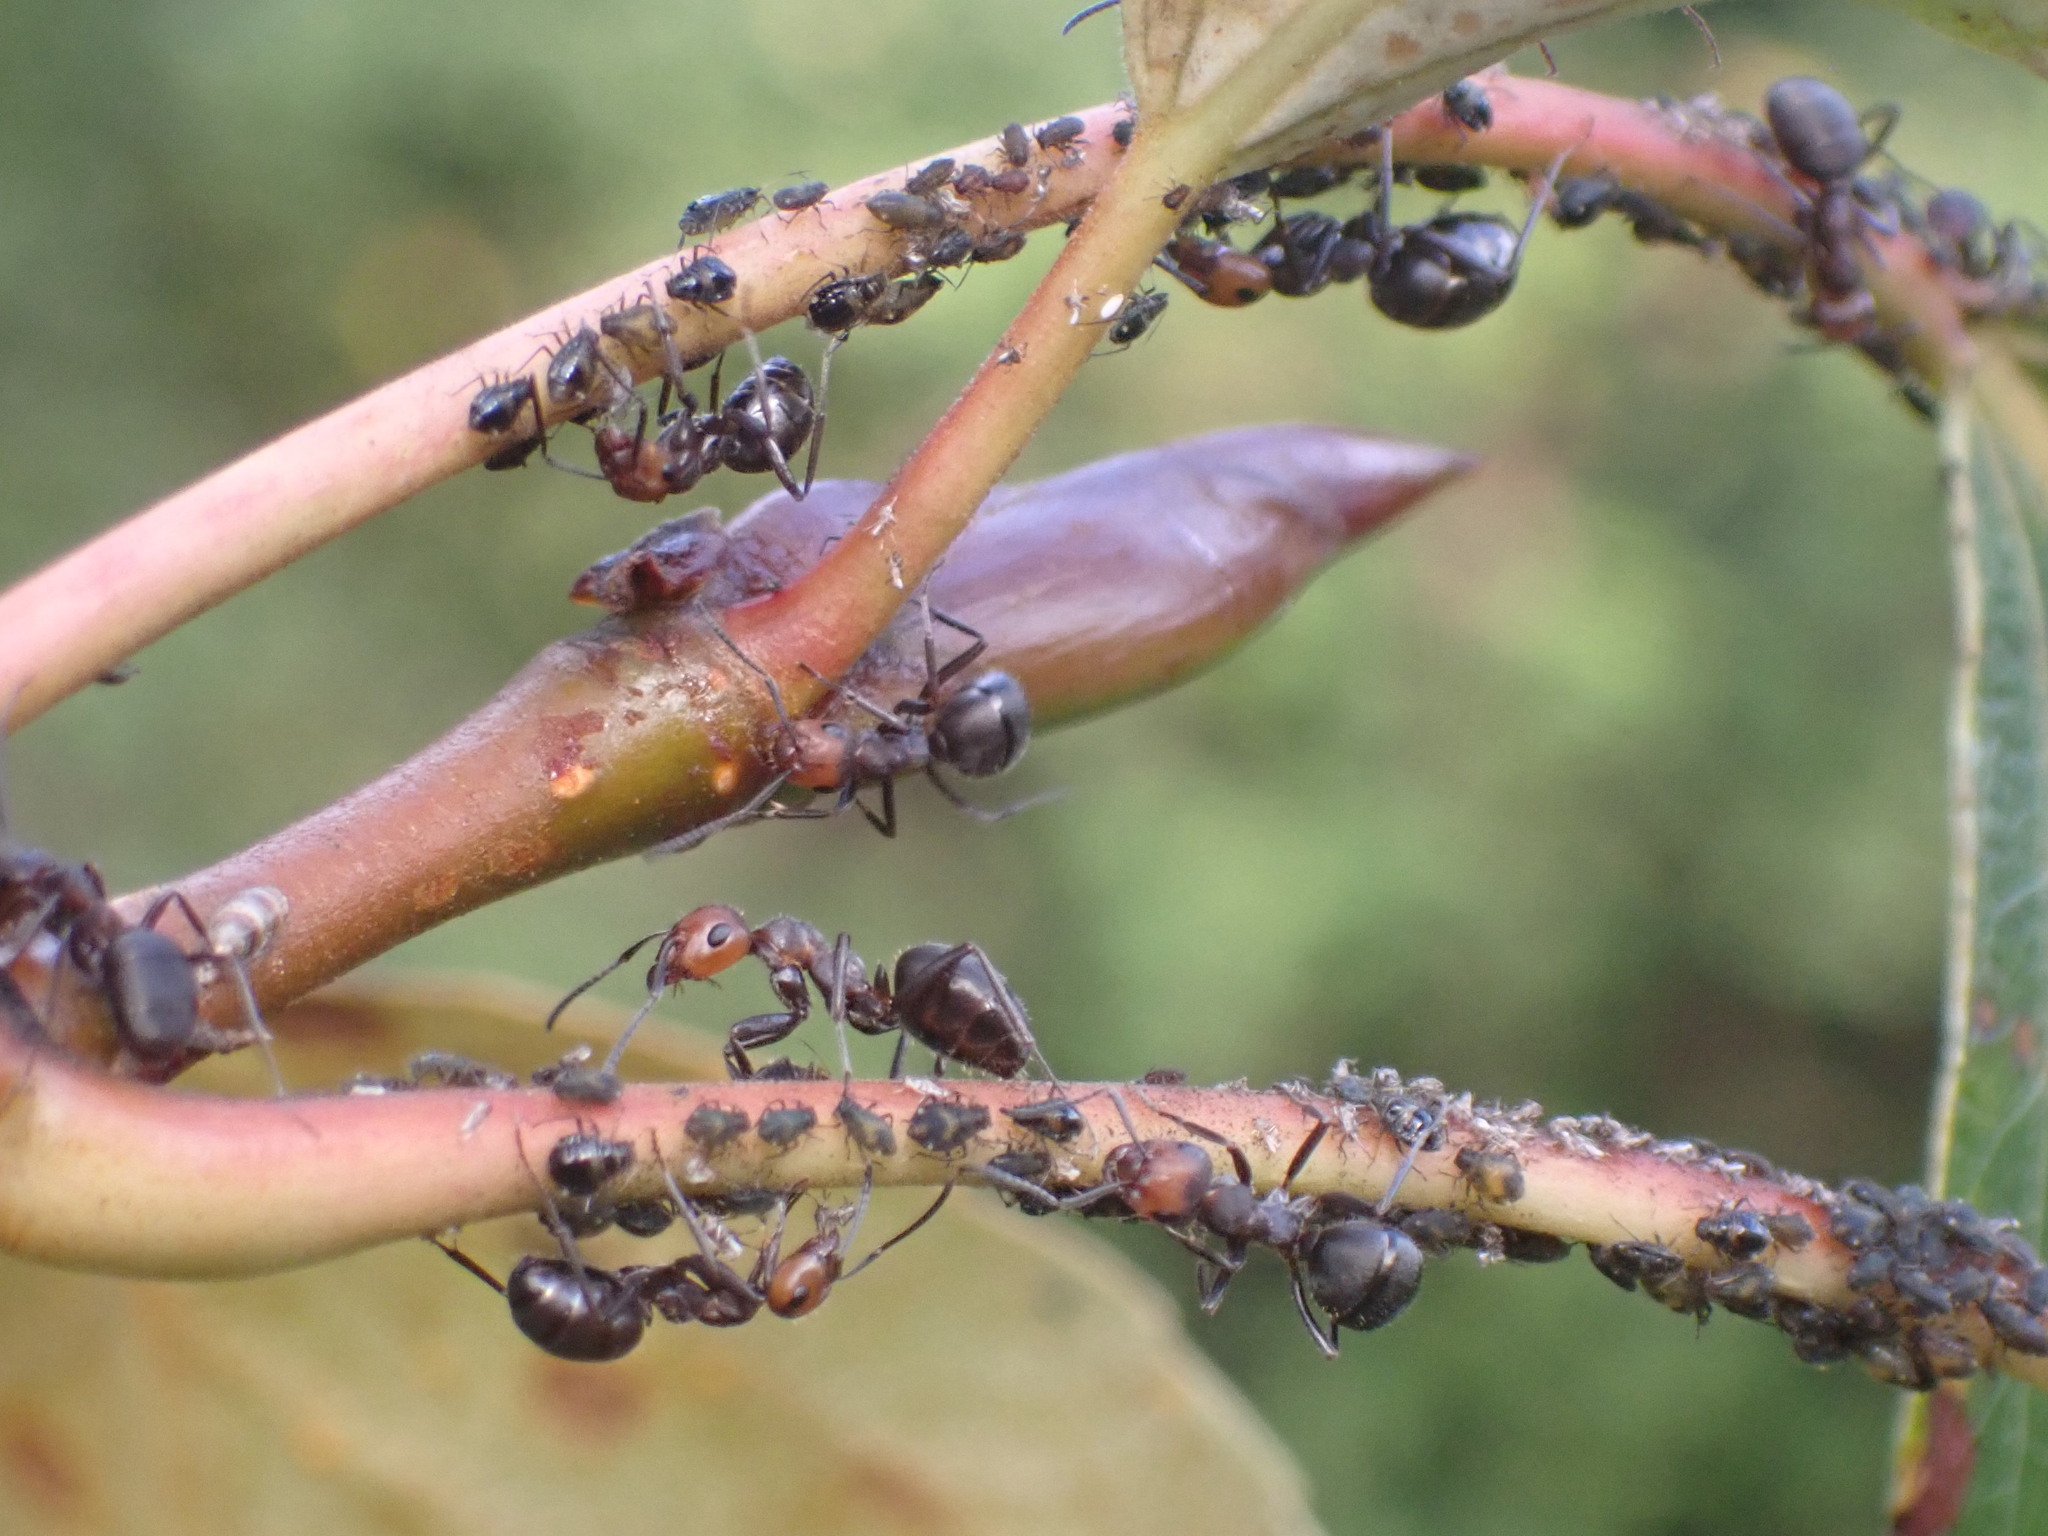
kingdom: Animalia
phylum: Arthropoda
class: Insecta
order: Hymenoptera
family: Formicidae
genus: Formica
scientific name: Formica obscuripes
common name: Western thatching ant
